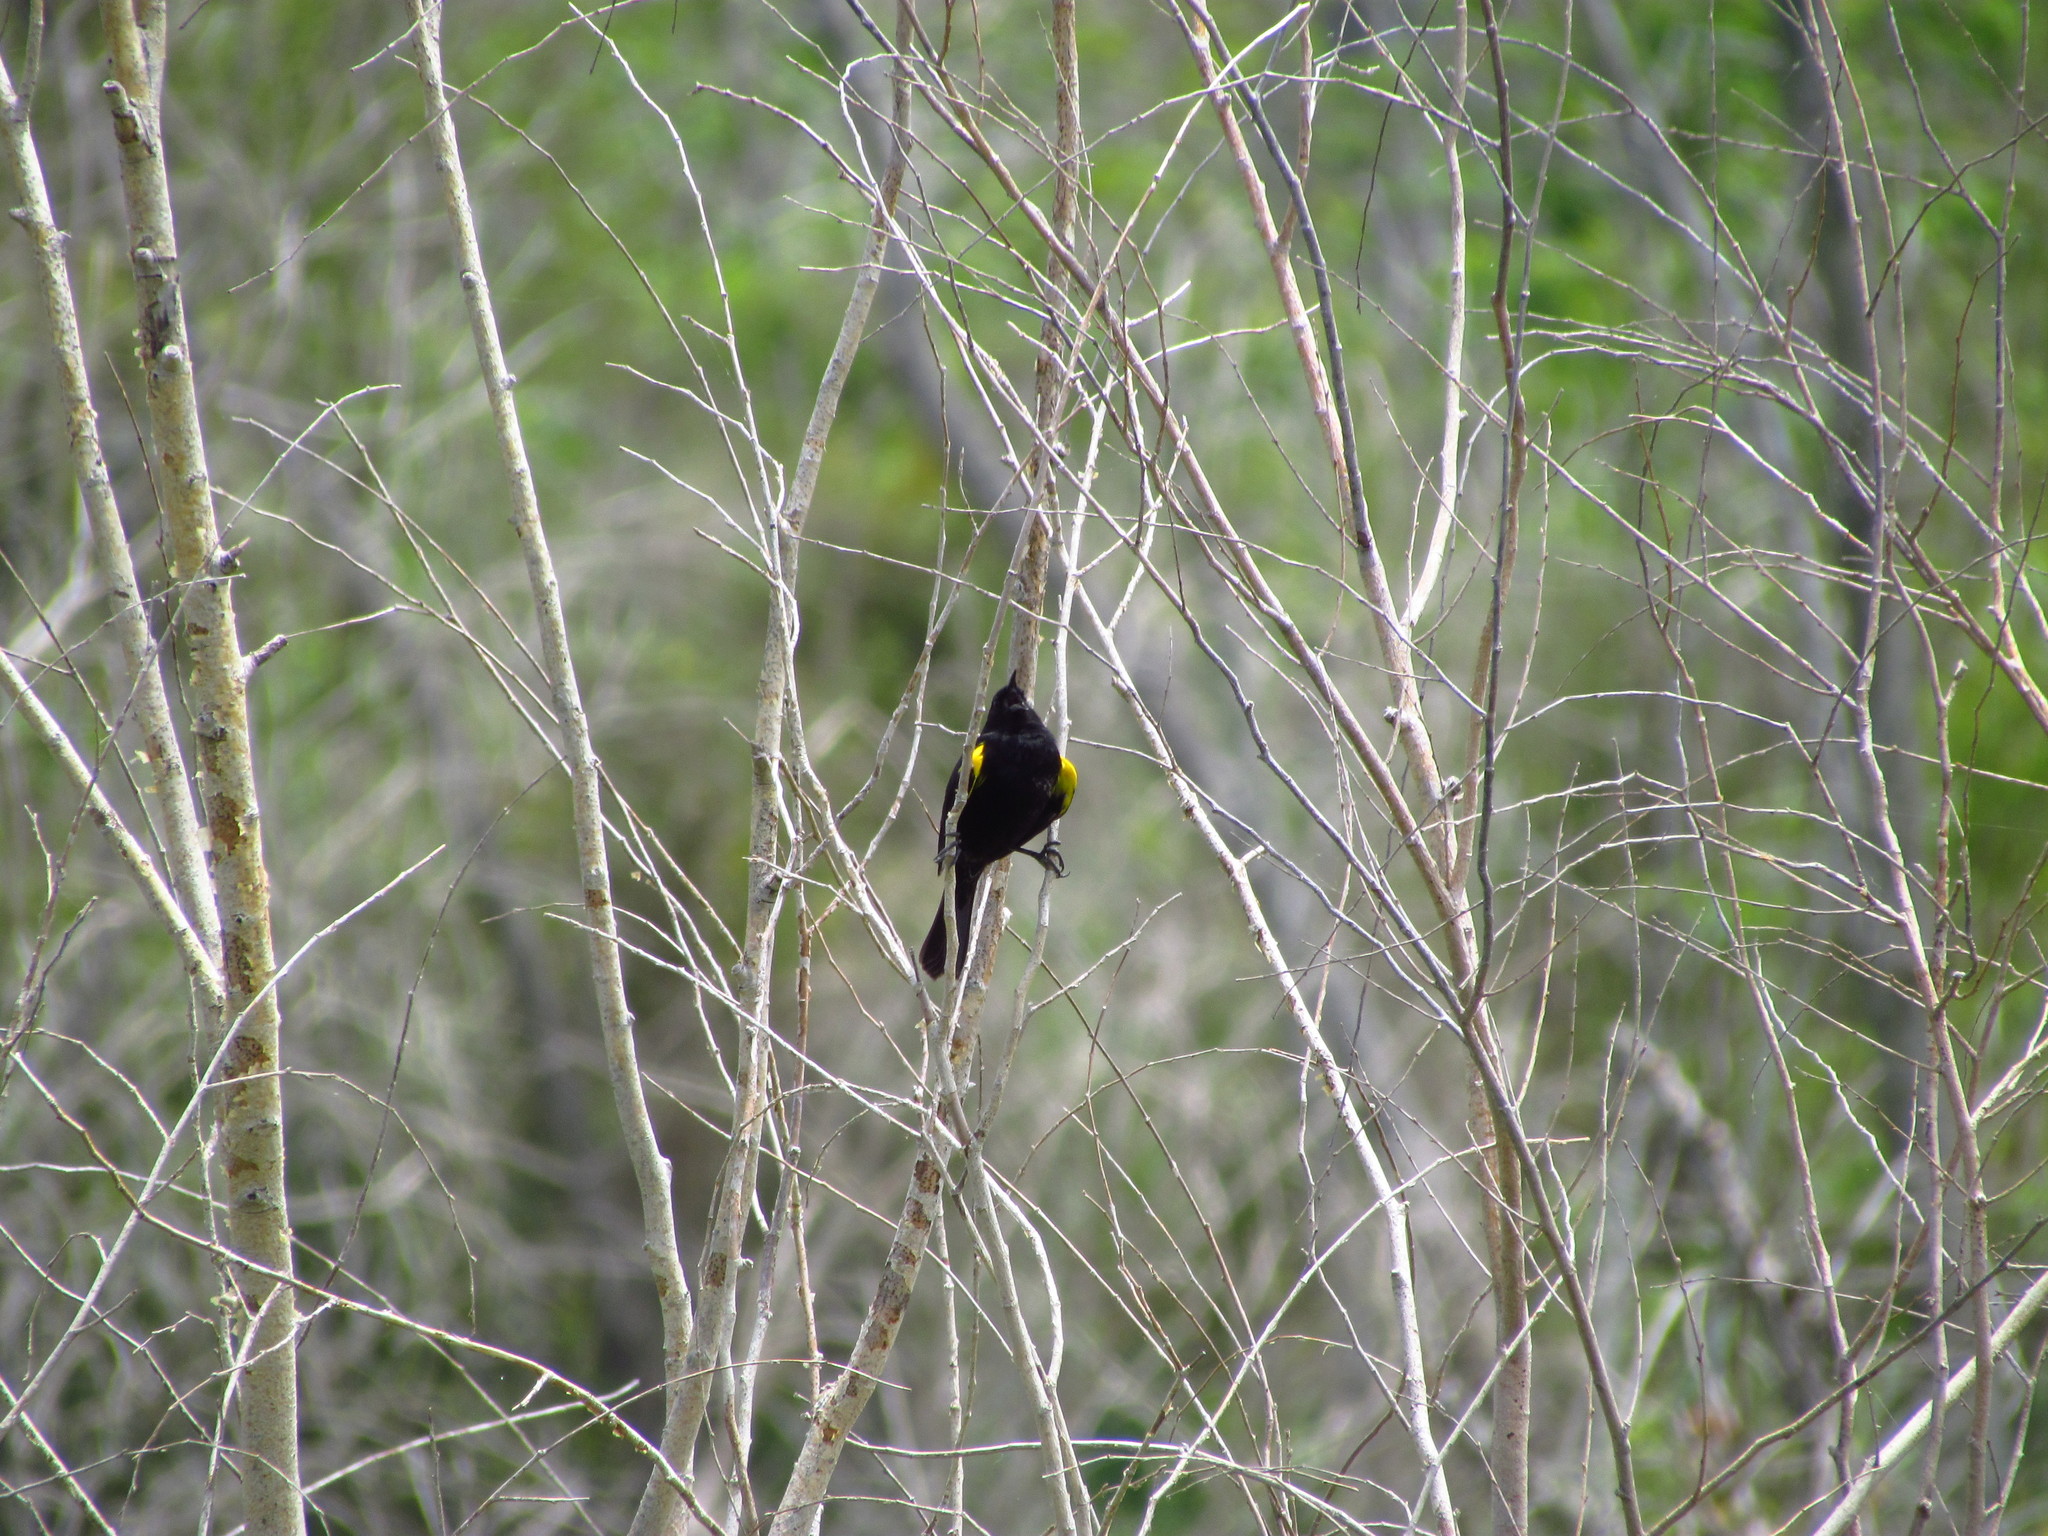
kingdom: Animalia
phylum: Chordata
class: Aves
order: Passeriformes
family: Icteridae
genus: Agelasticus
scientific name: Agelasticus thilius
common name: Yellow-winged blackbird
